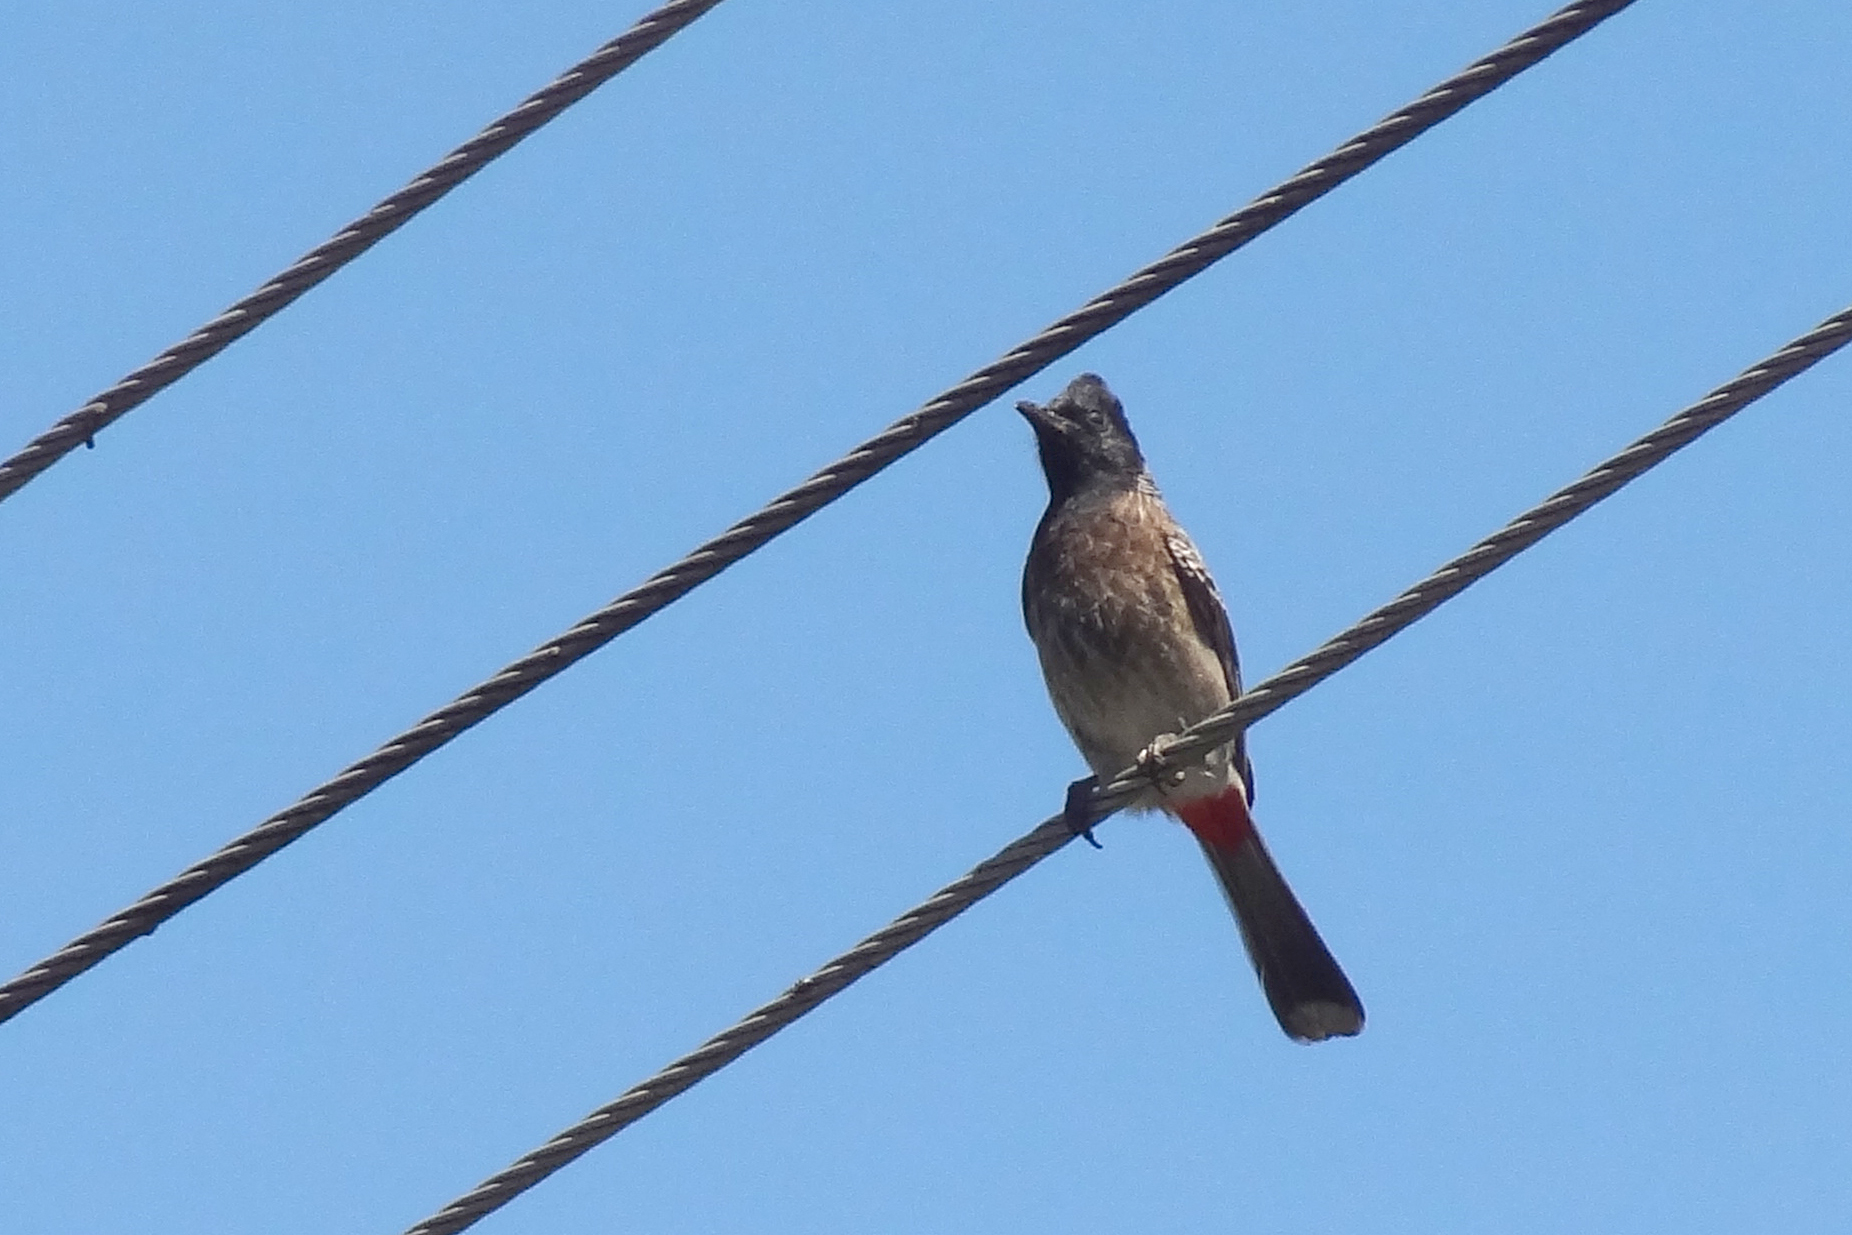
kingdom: Animalia
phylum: Chordata
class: Aves
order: Passeriformes
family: Pycnonotidae
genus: Pycnonotus
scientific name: Pycnonotus cafer
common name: Red-vented bulbul
